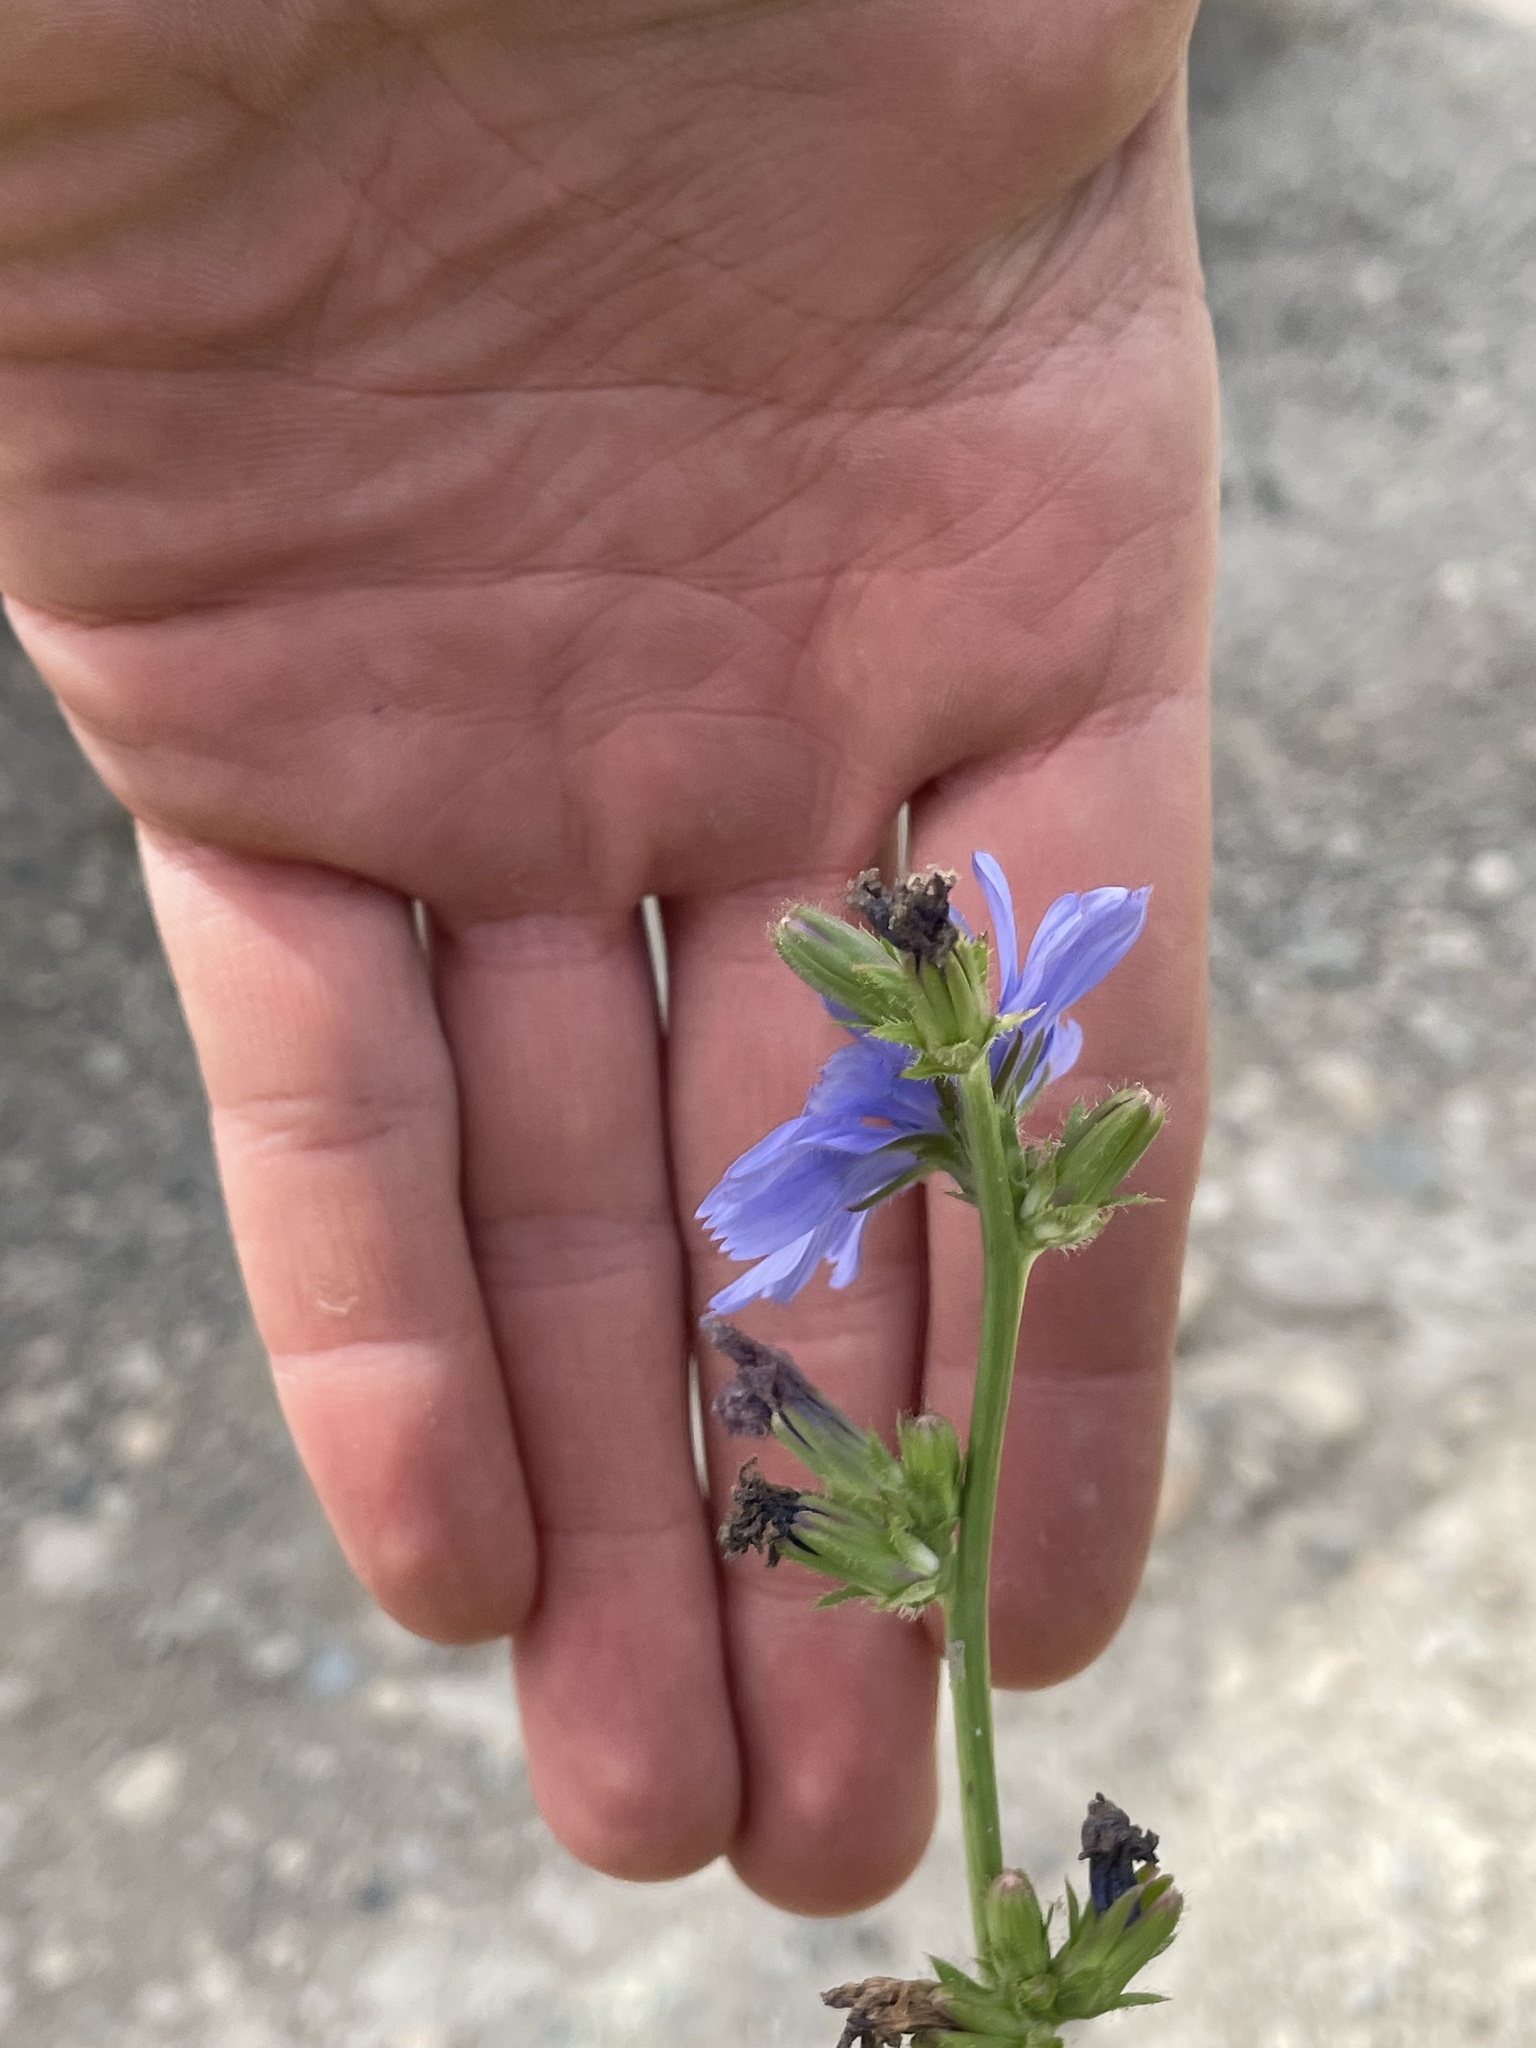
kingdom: Plantae
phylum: Tracheophyta
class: Magnoliopsida
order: Asterales
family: Asteraceae
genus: Cichorium
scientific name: Cichorium intybus
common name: Chicory
